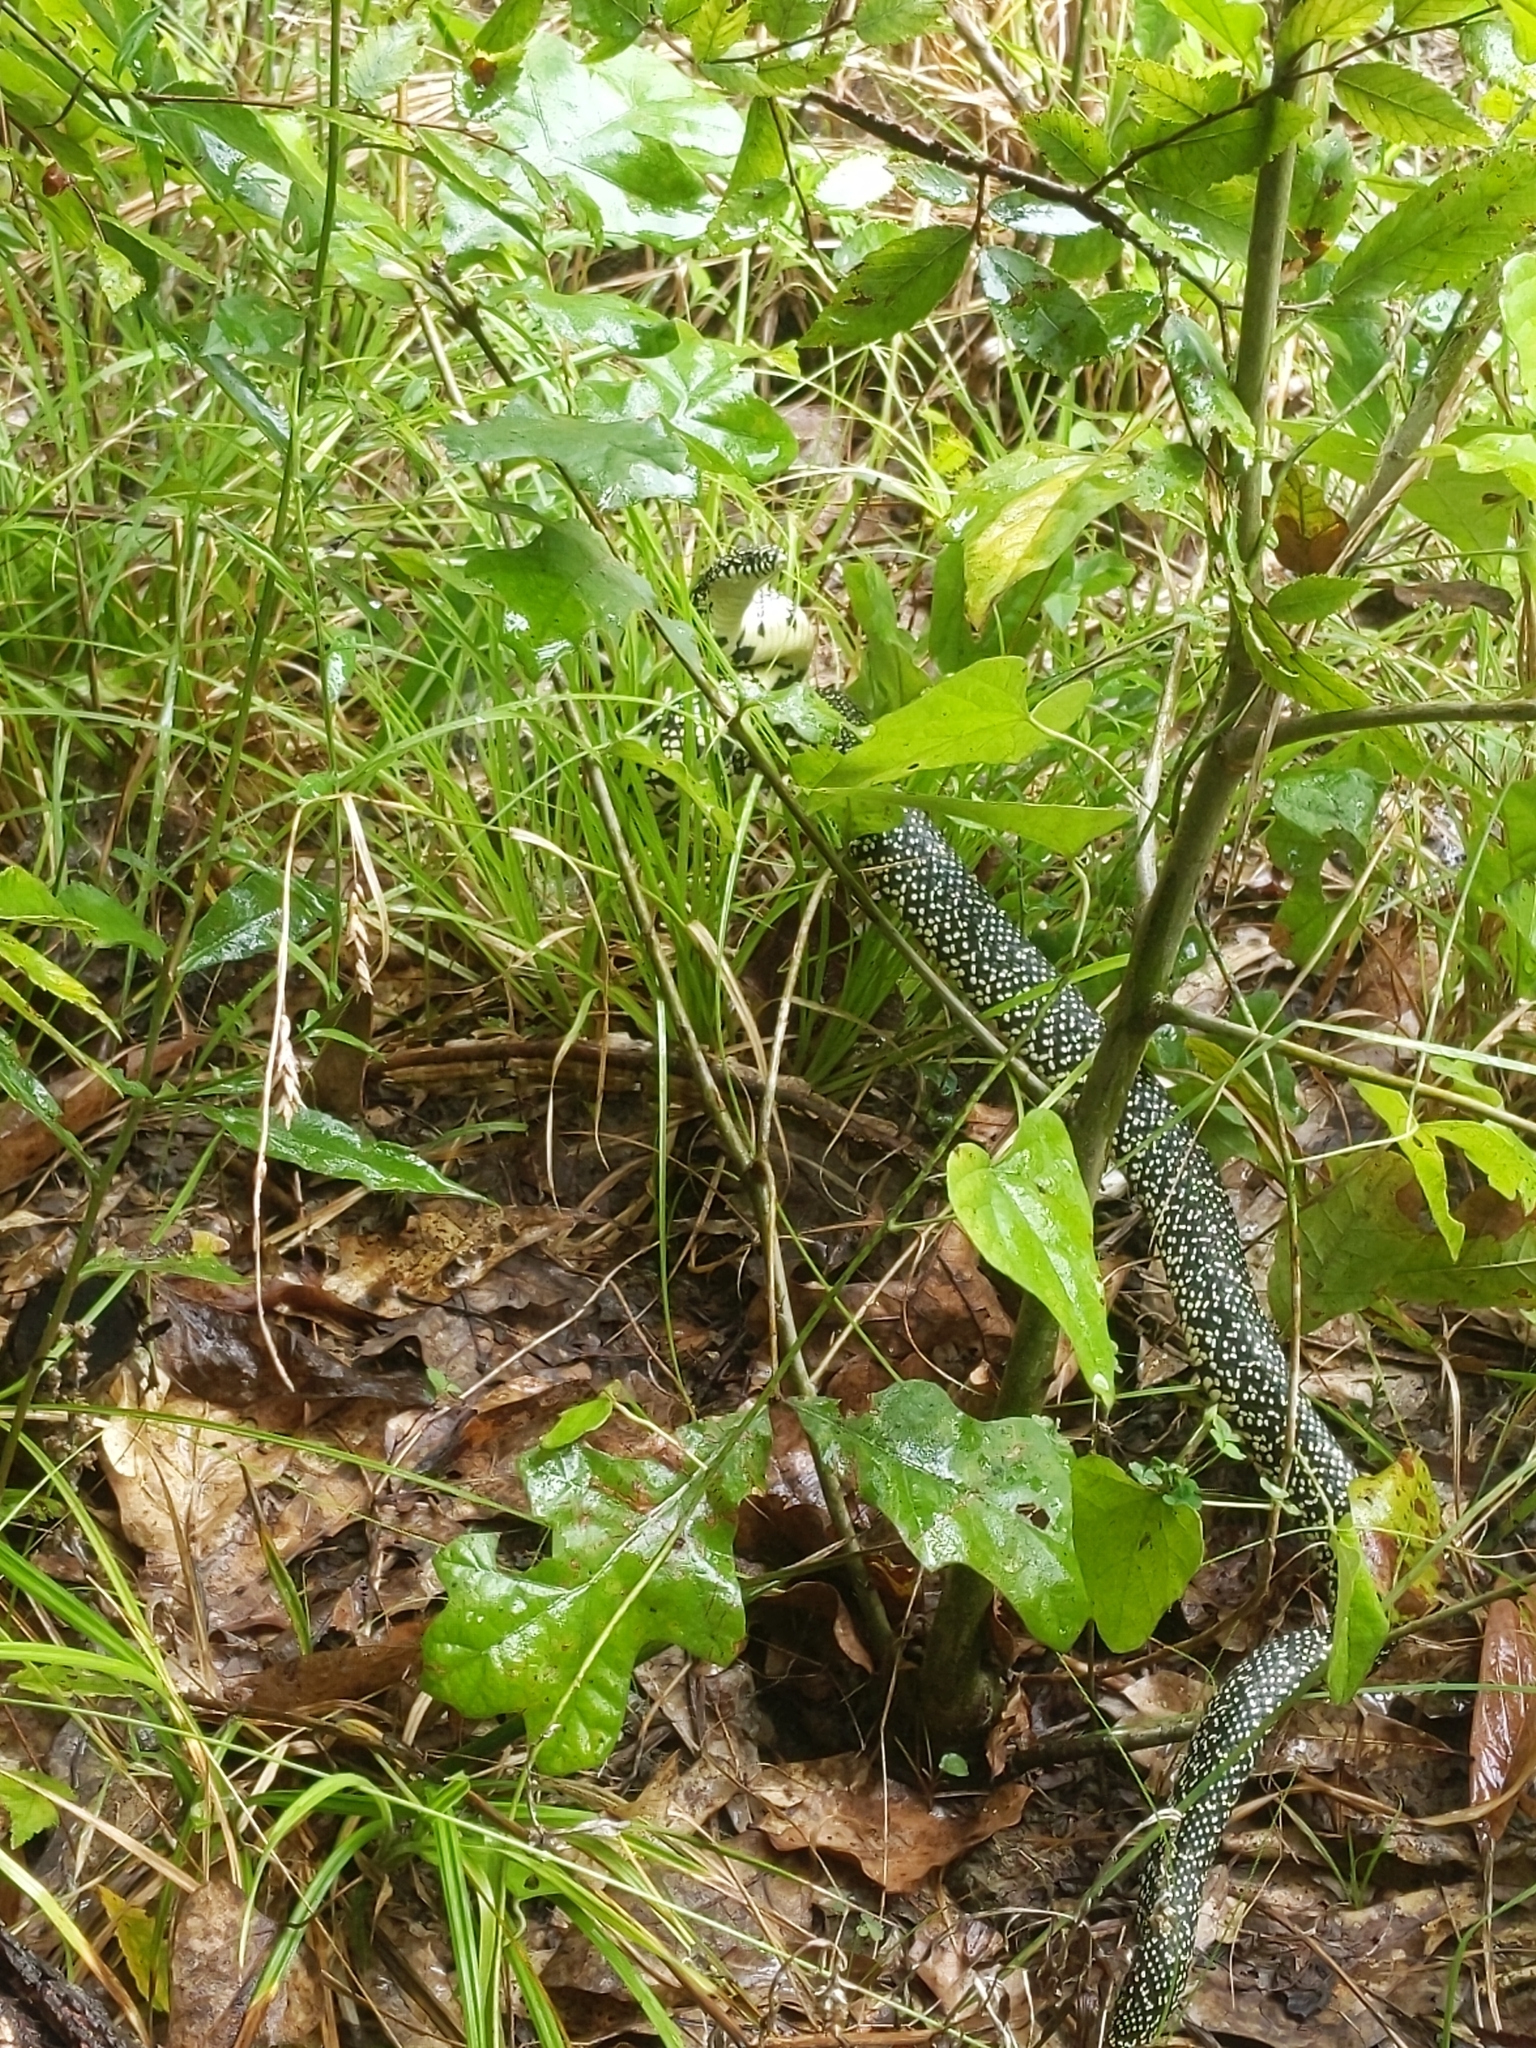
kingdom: Animalia
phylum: Chordata
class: Squamata
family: Colubridae
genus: Lampropeltis
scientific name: Lampropeltis holbrooki
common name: Speckled kingsnake
